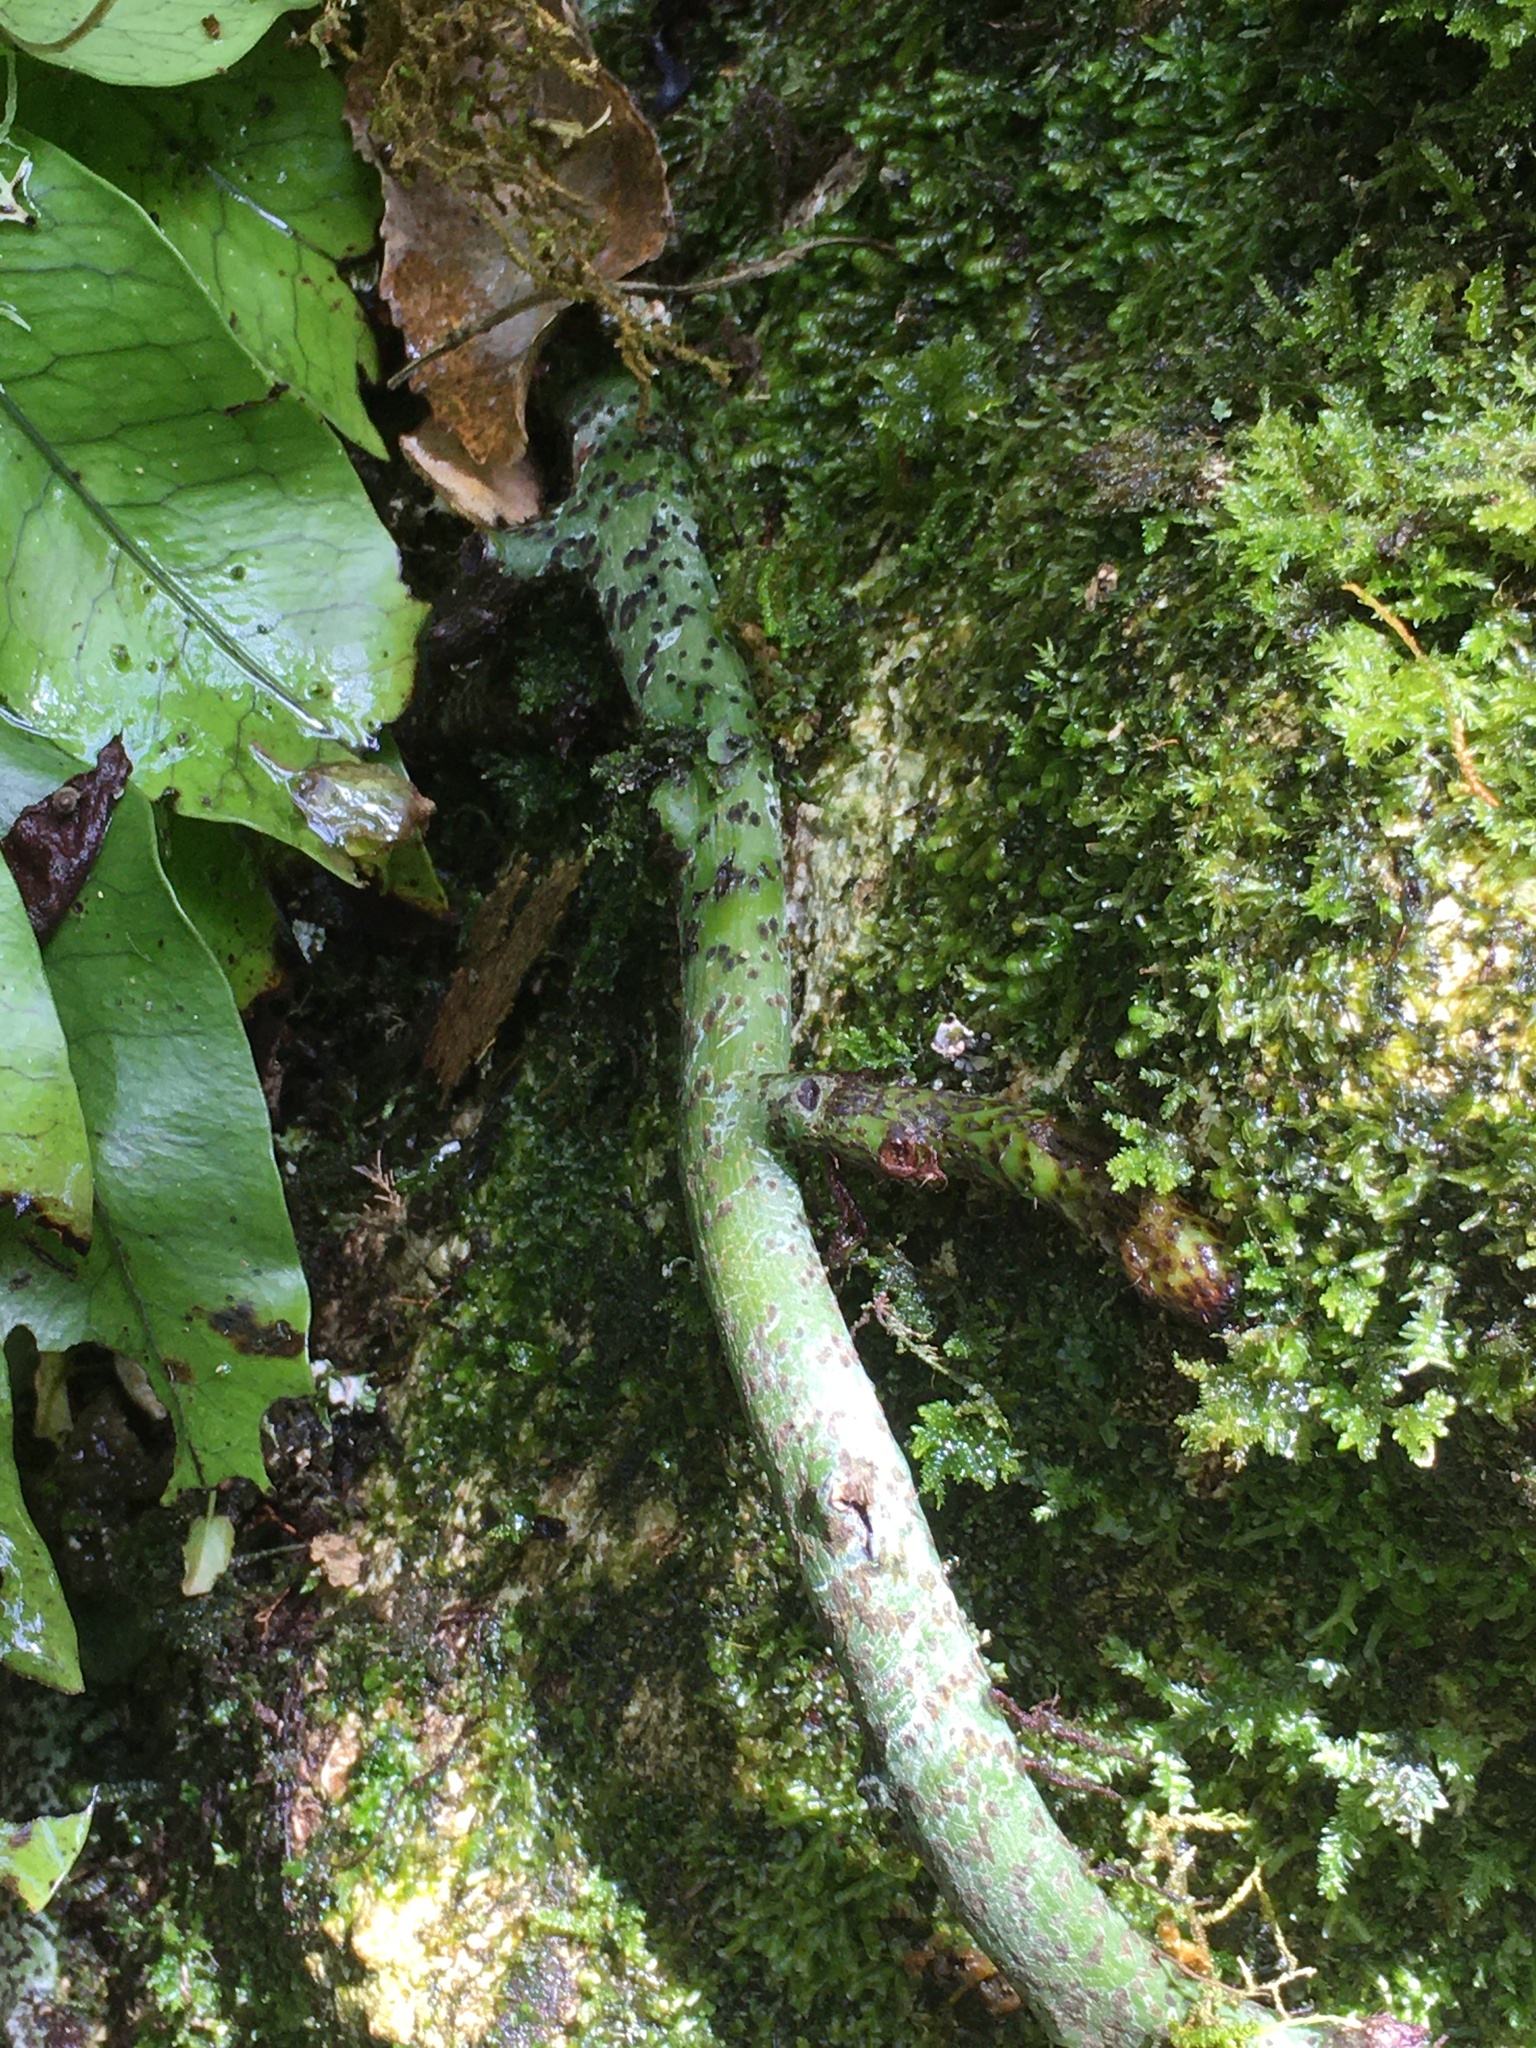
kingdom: Plantae
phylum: Tracheophyta
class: Polypodiopsida
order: Polypodiales
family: Polypodiaceae
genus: Lecanopteris
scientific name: Lecanopteris pustulata
